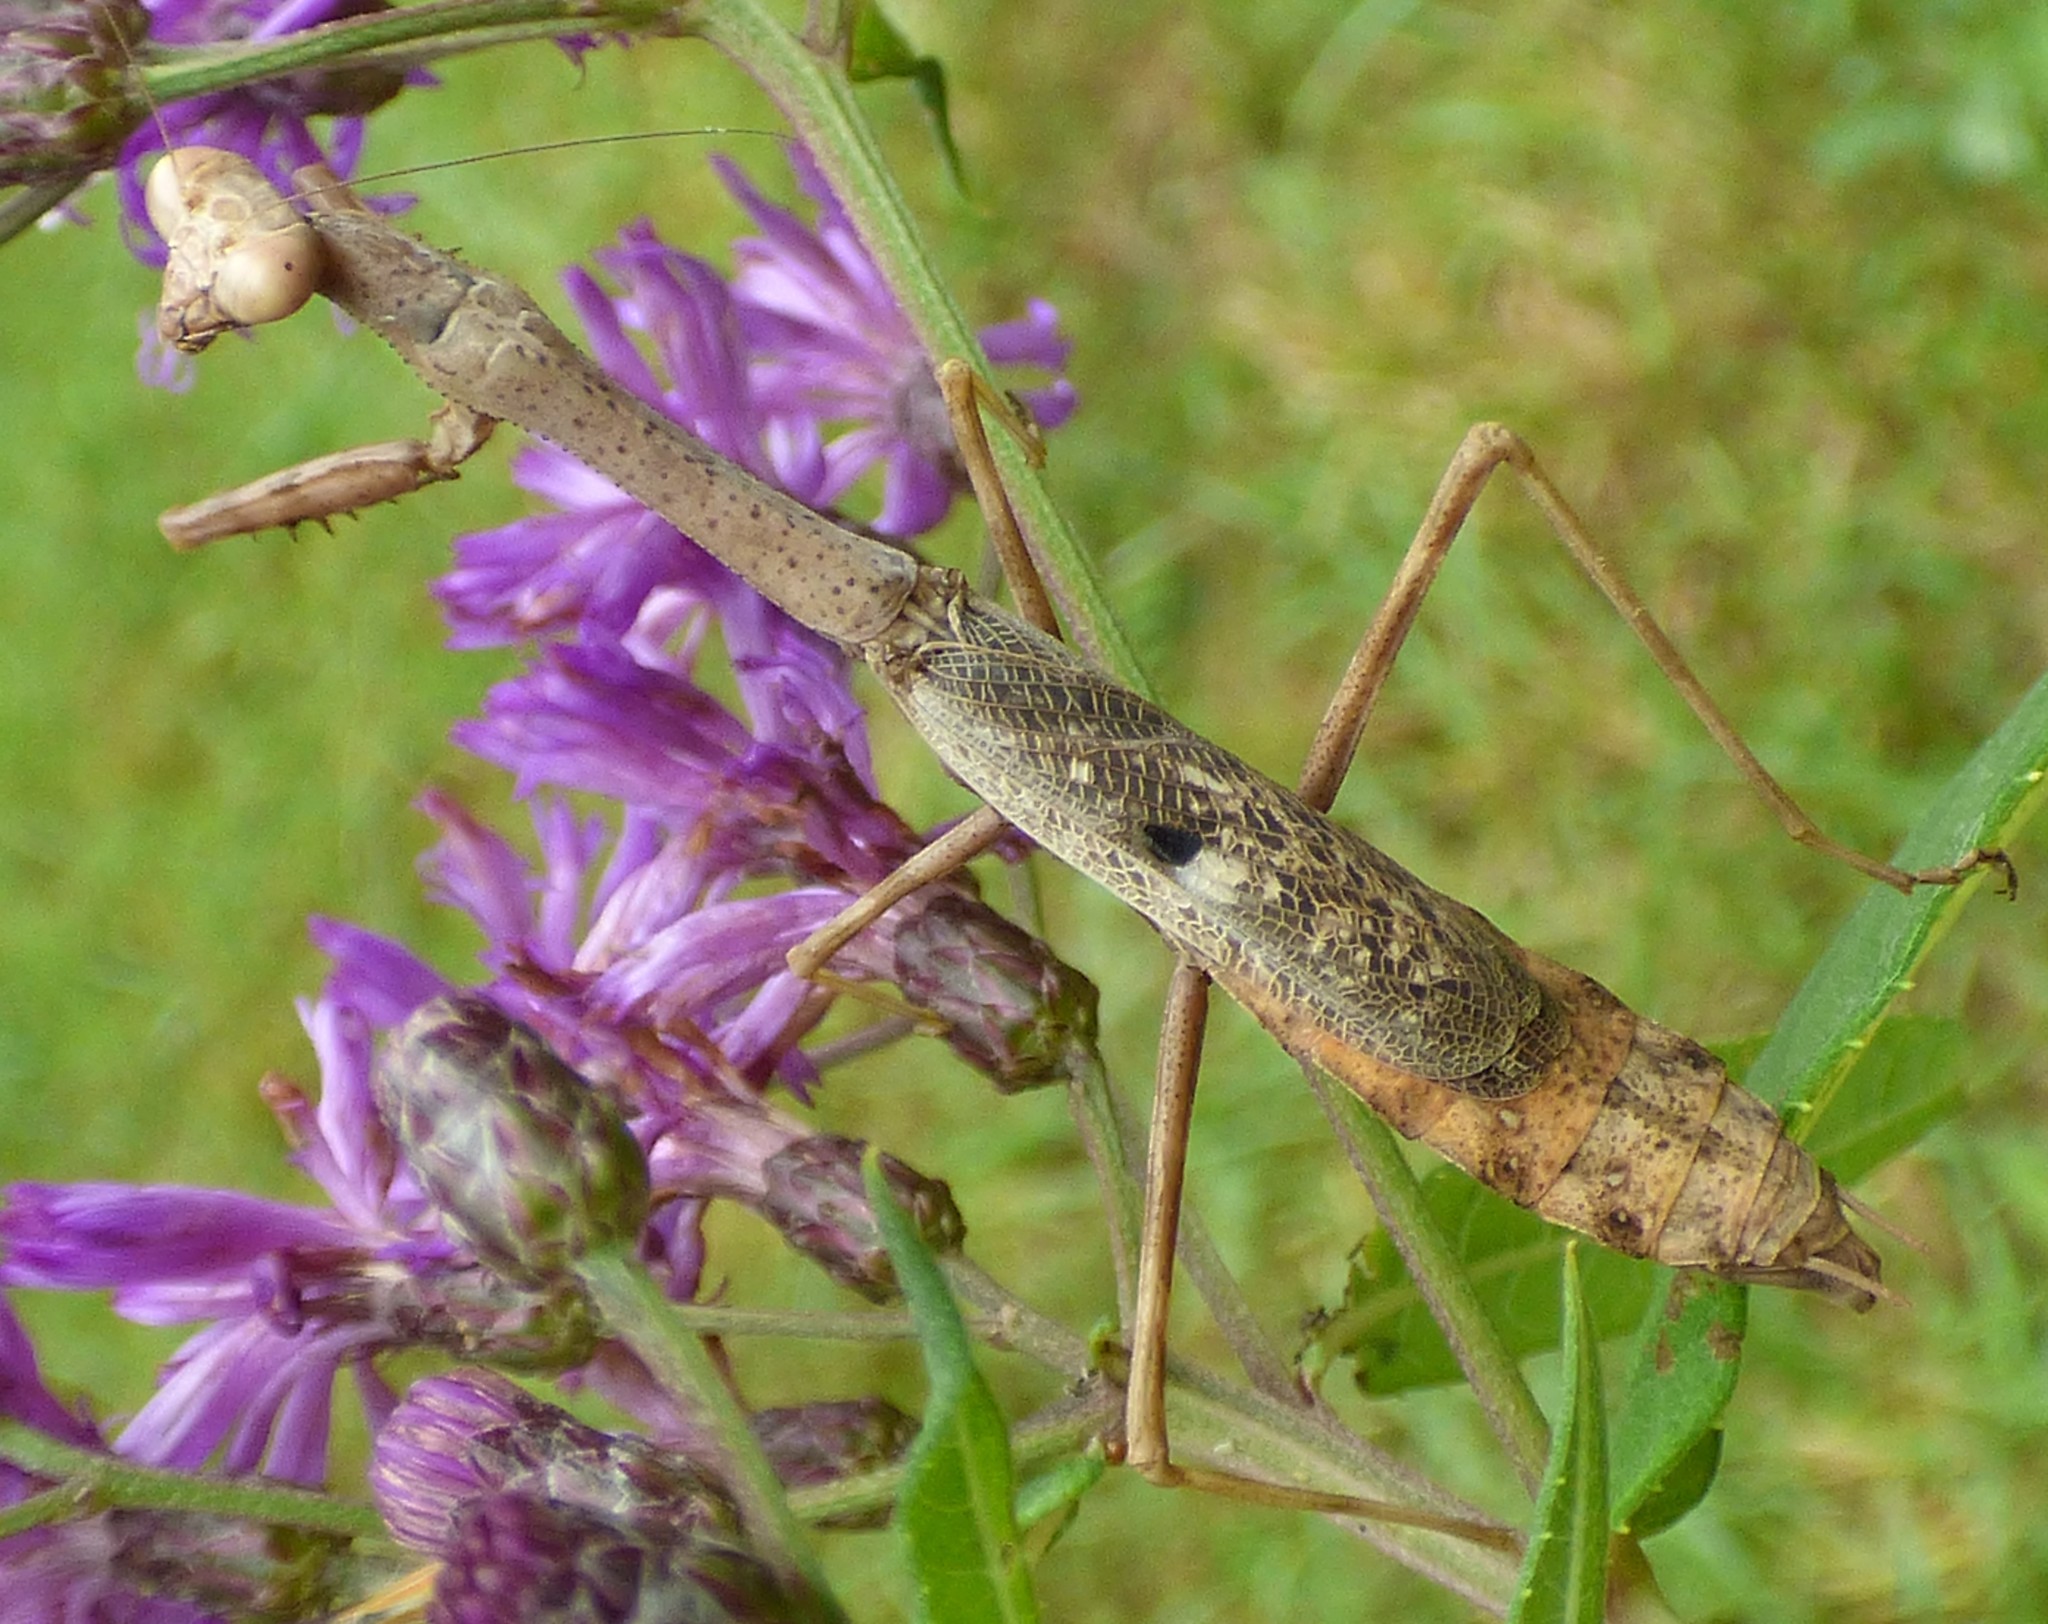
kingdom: Animalia
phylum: Arthropoda
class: Insecta
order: Mantodea
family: Mantidae
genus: Stagmomantis
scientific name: Stagmomantis carolina
